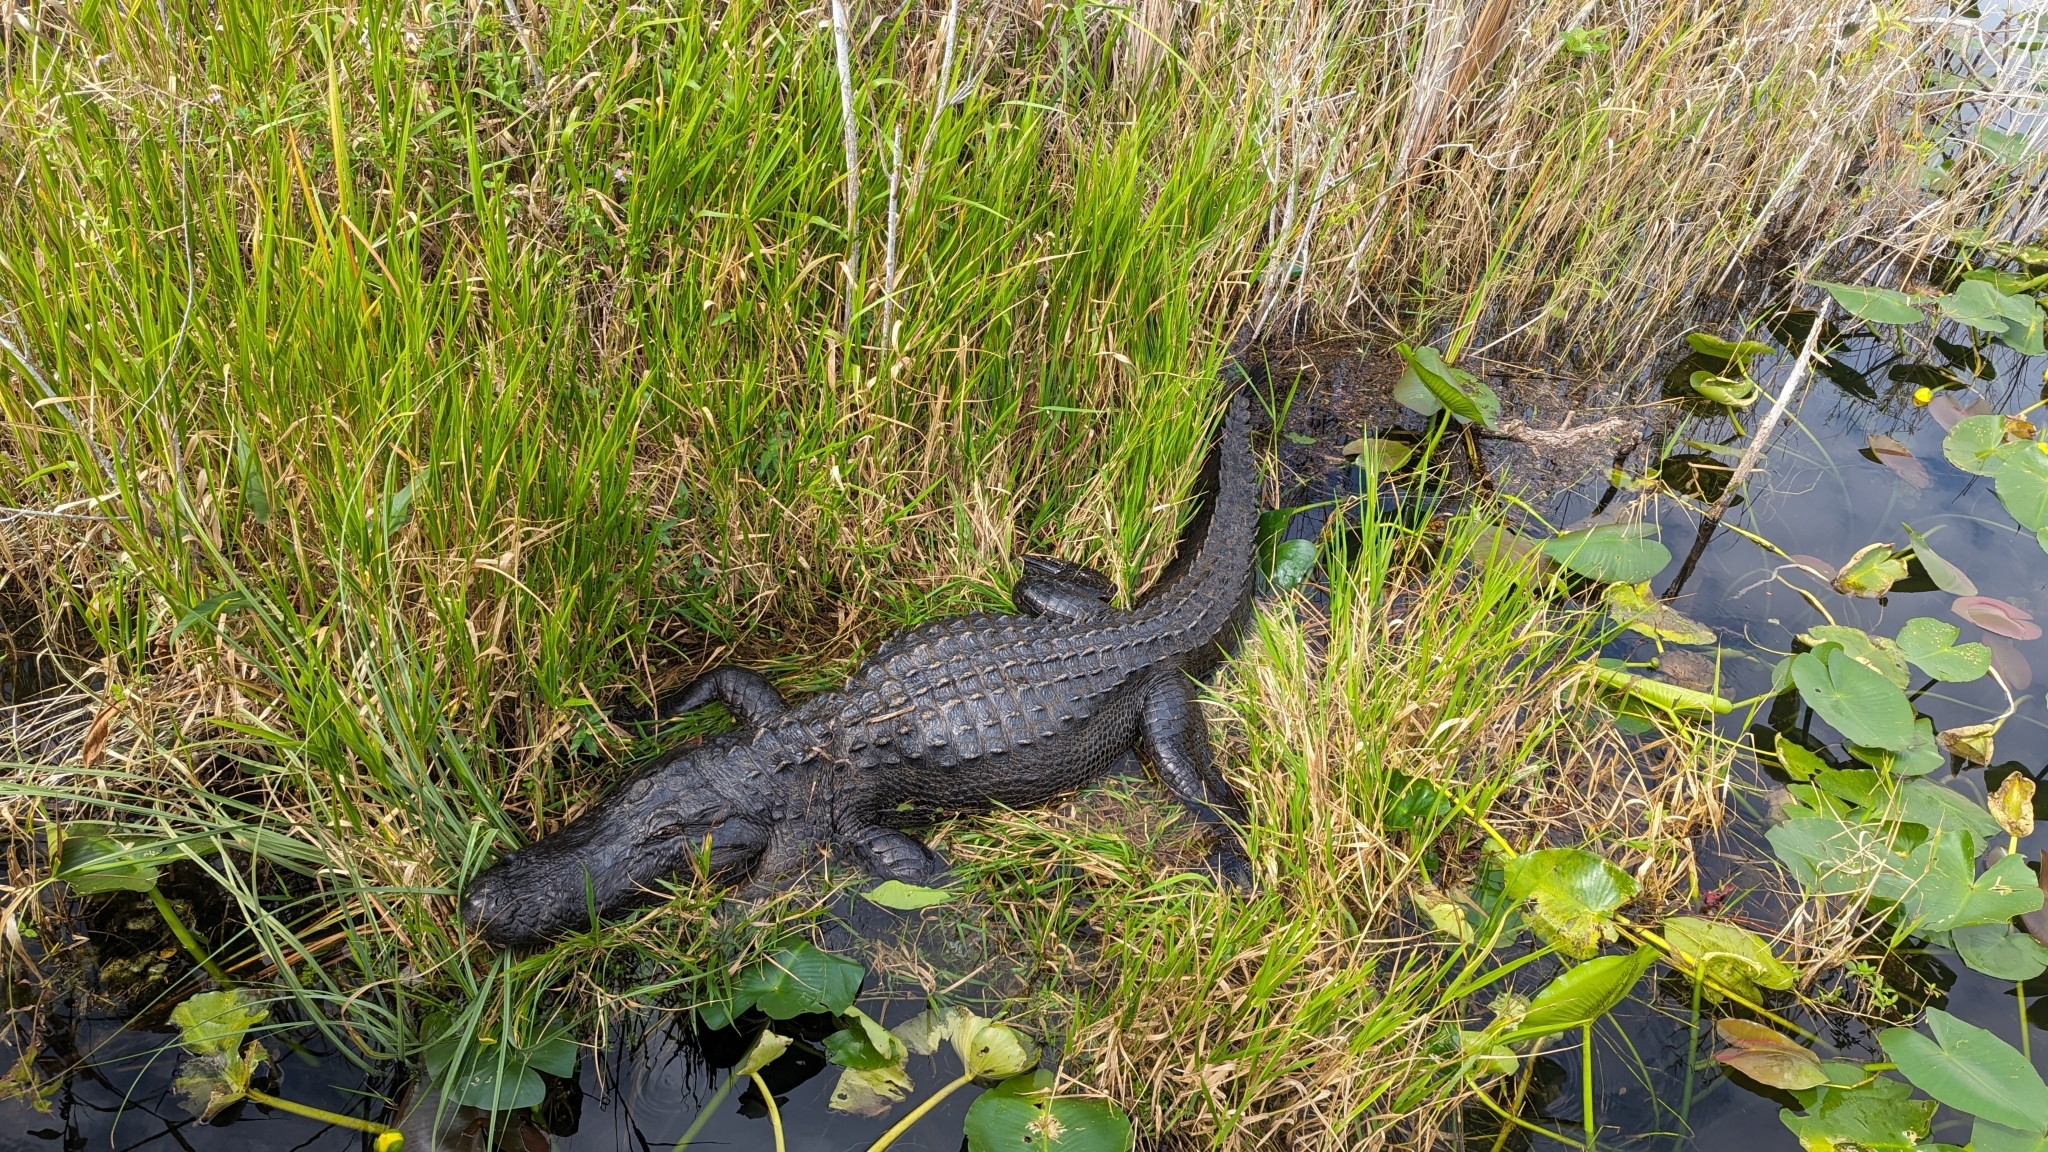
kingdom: Animalia
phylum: Chordata
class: Crocodylia
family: Alligatoridae
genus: Alligator
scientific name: Alligator mississippiensis
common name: American alligator
